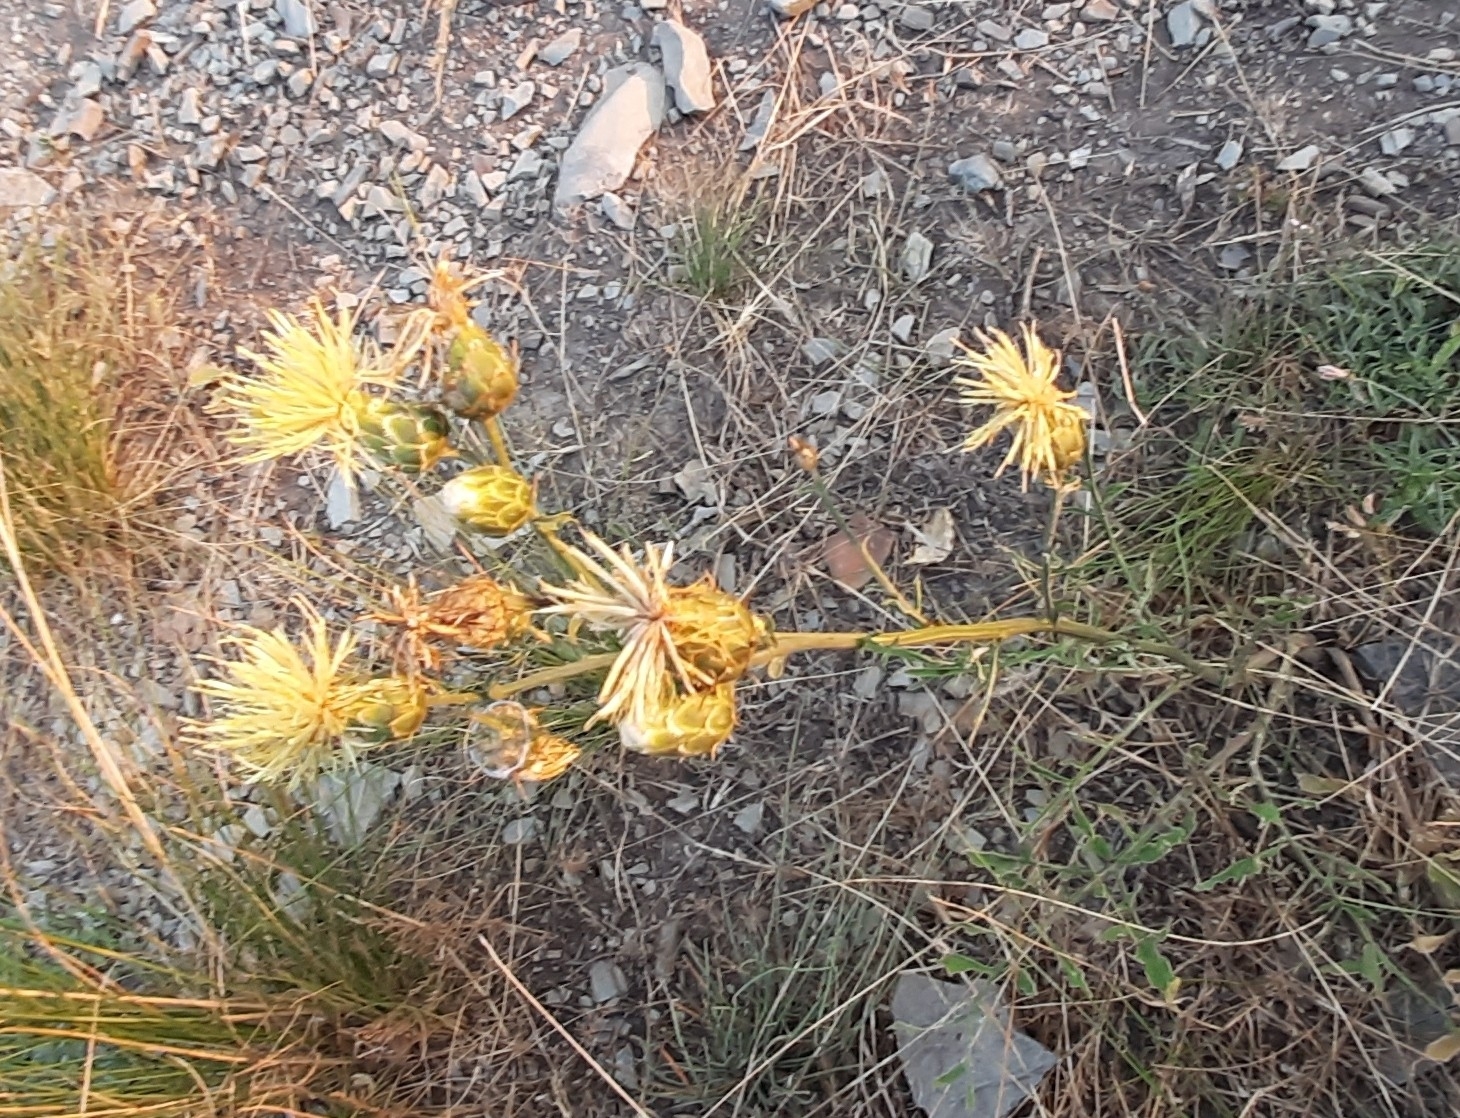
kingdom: Plantae
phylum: Tracheophyta
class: Magnoliopsida
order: Asterales
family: Asteraceae
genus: Centaurea
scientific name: Centaurea salonitana
